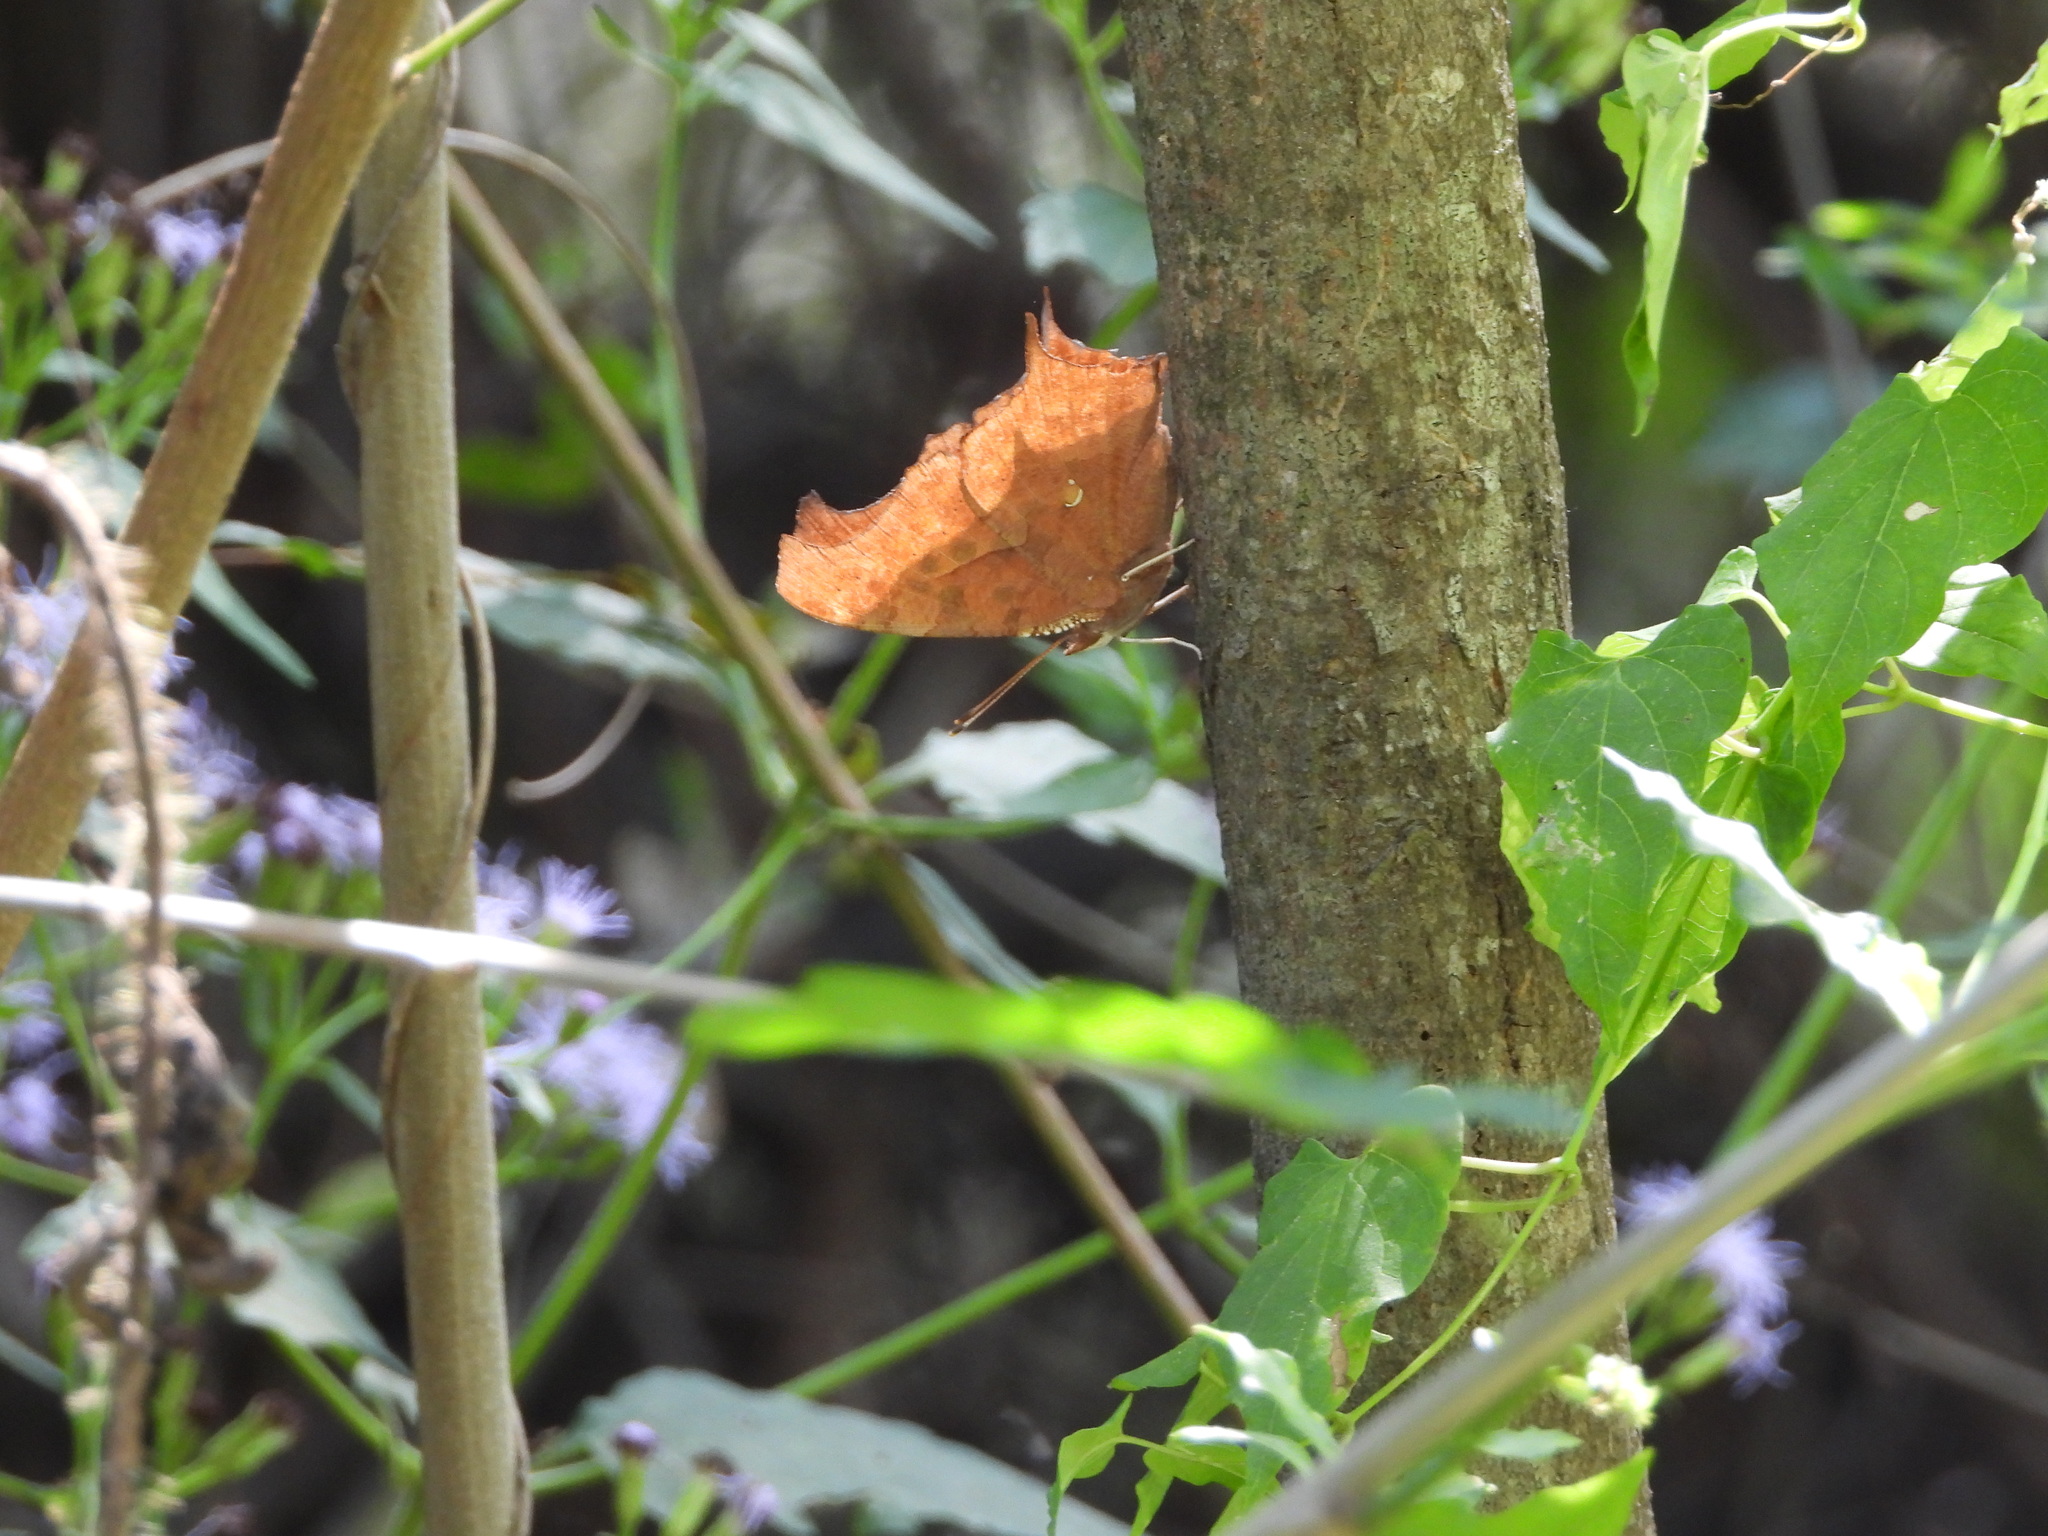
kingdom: Animalia
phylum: Arthropoda
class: Insecta
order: Lepidoptera
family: Nymphalidae
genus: Polygonia
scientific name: Polygonia interrogationis
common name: Question mark
